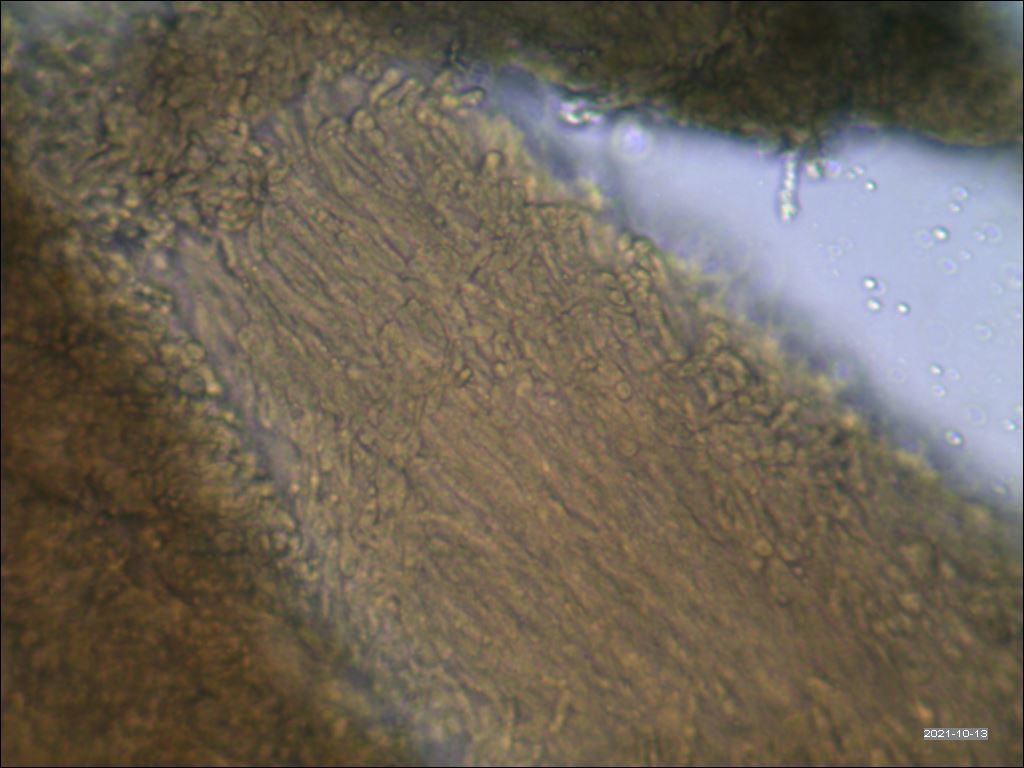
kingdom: Fungi
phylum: Basidiomycota
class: Agaricomycetes
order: Thelephorales
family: Thelephoraceae
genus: Phellodon
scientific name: Phellodon confluens
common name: Fused tooth
